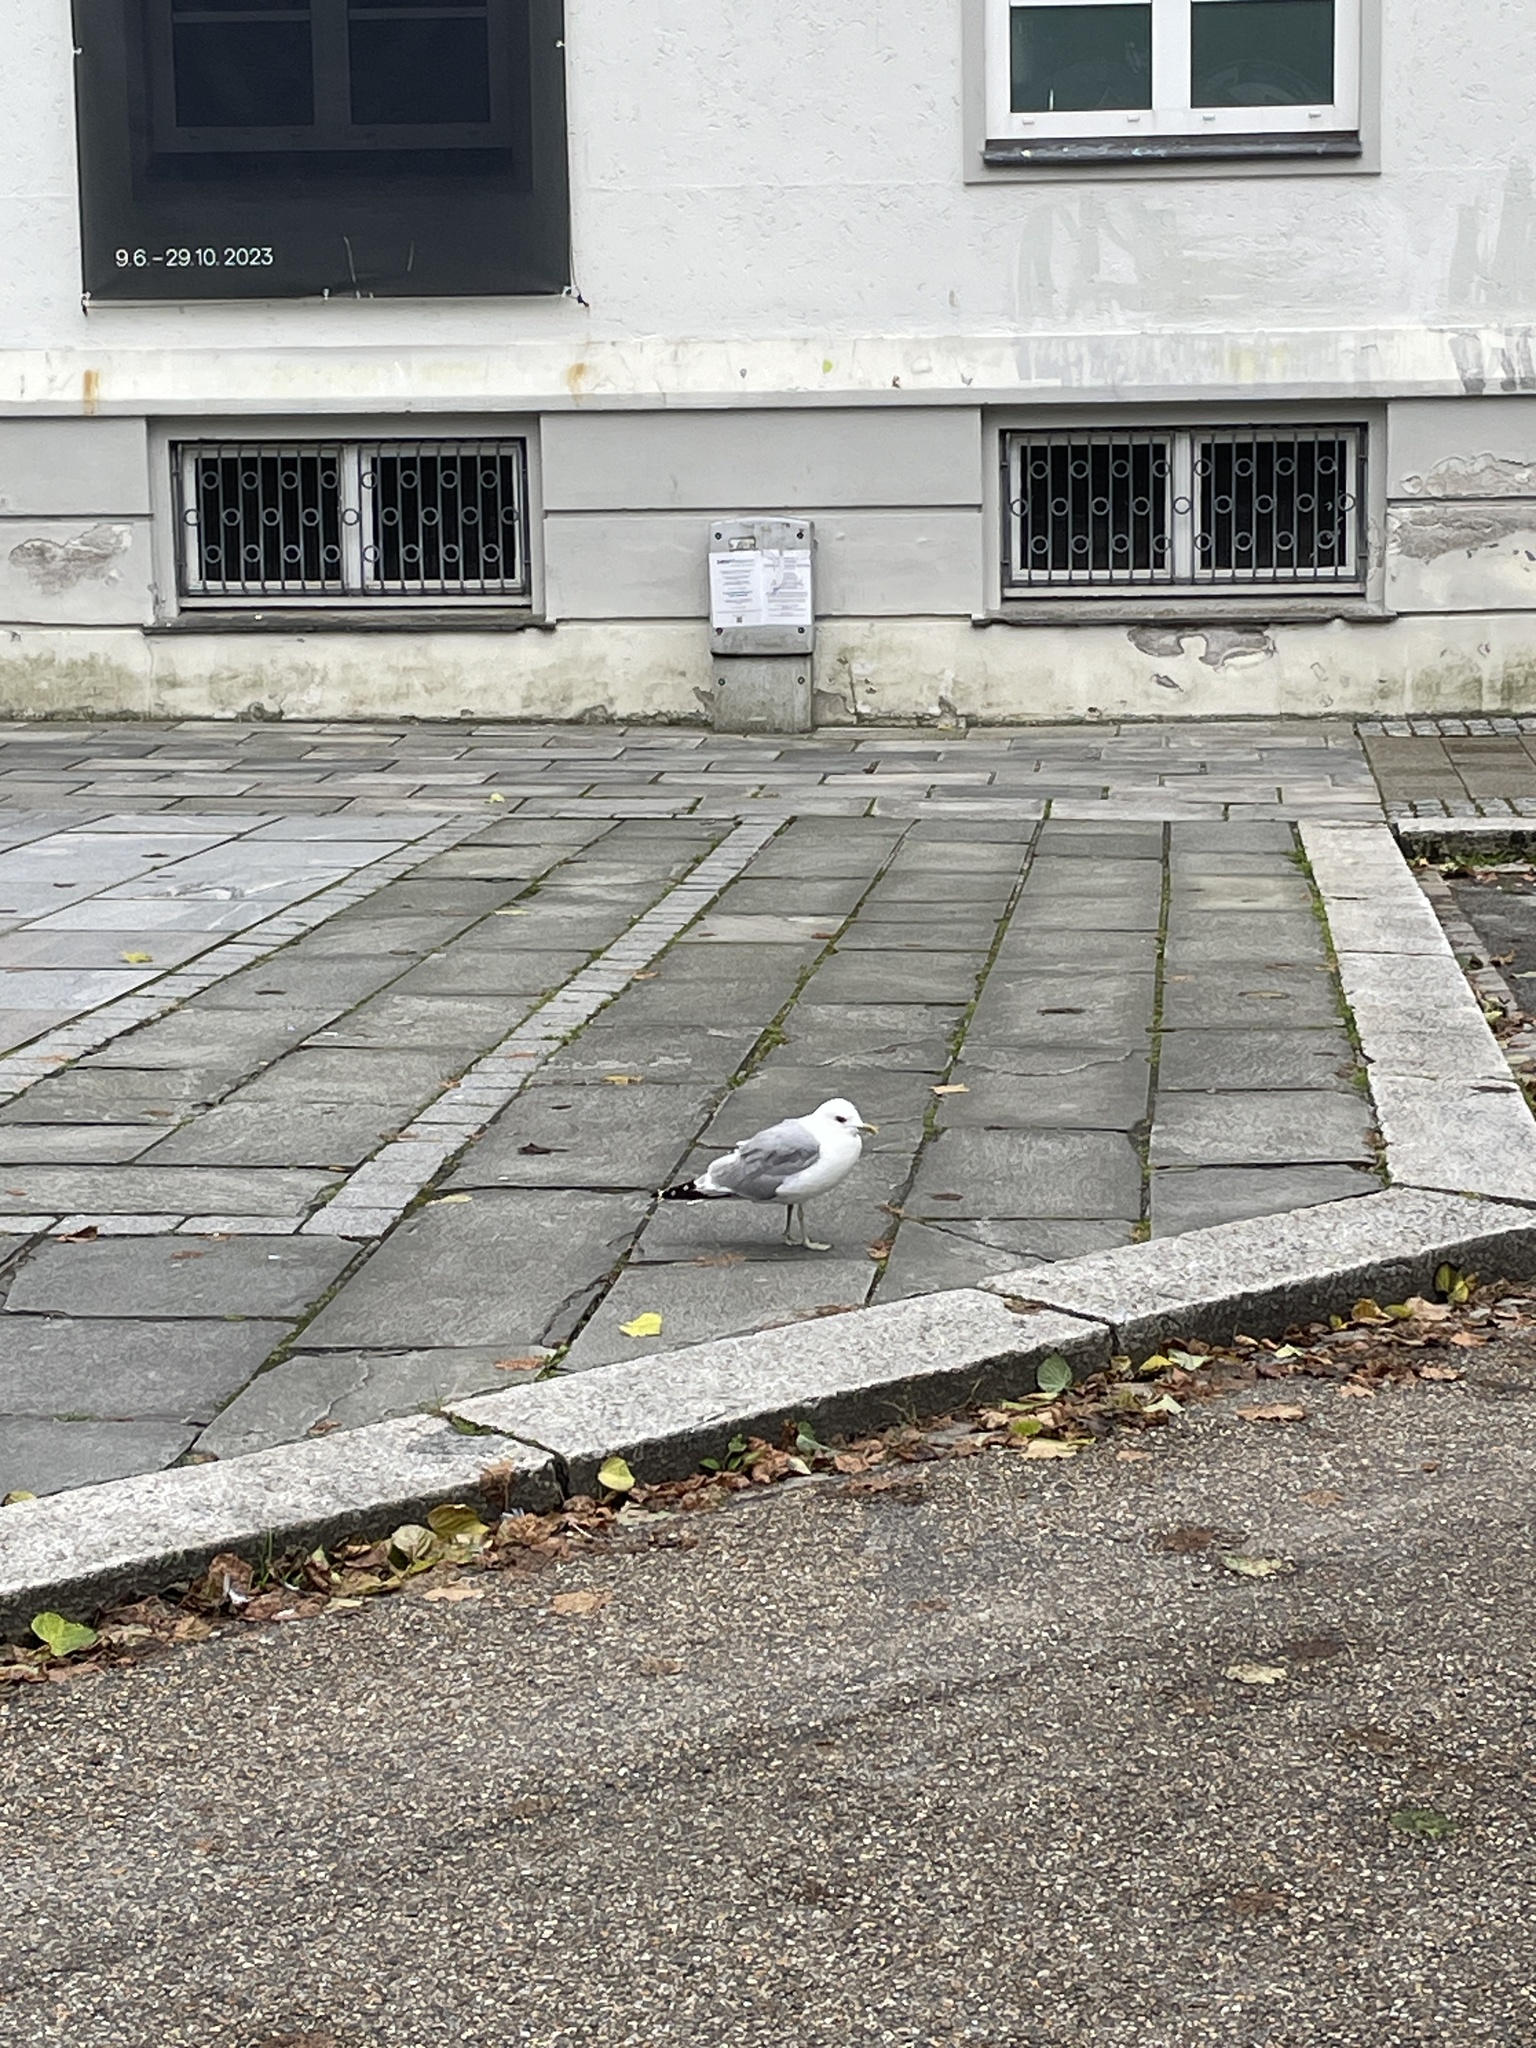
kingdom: Animalia
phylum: Chordata
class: Aves
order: Charadriiformes
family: Laridae
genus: Larus
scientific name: Larus canus
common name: Mew gull
